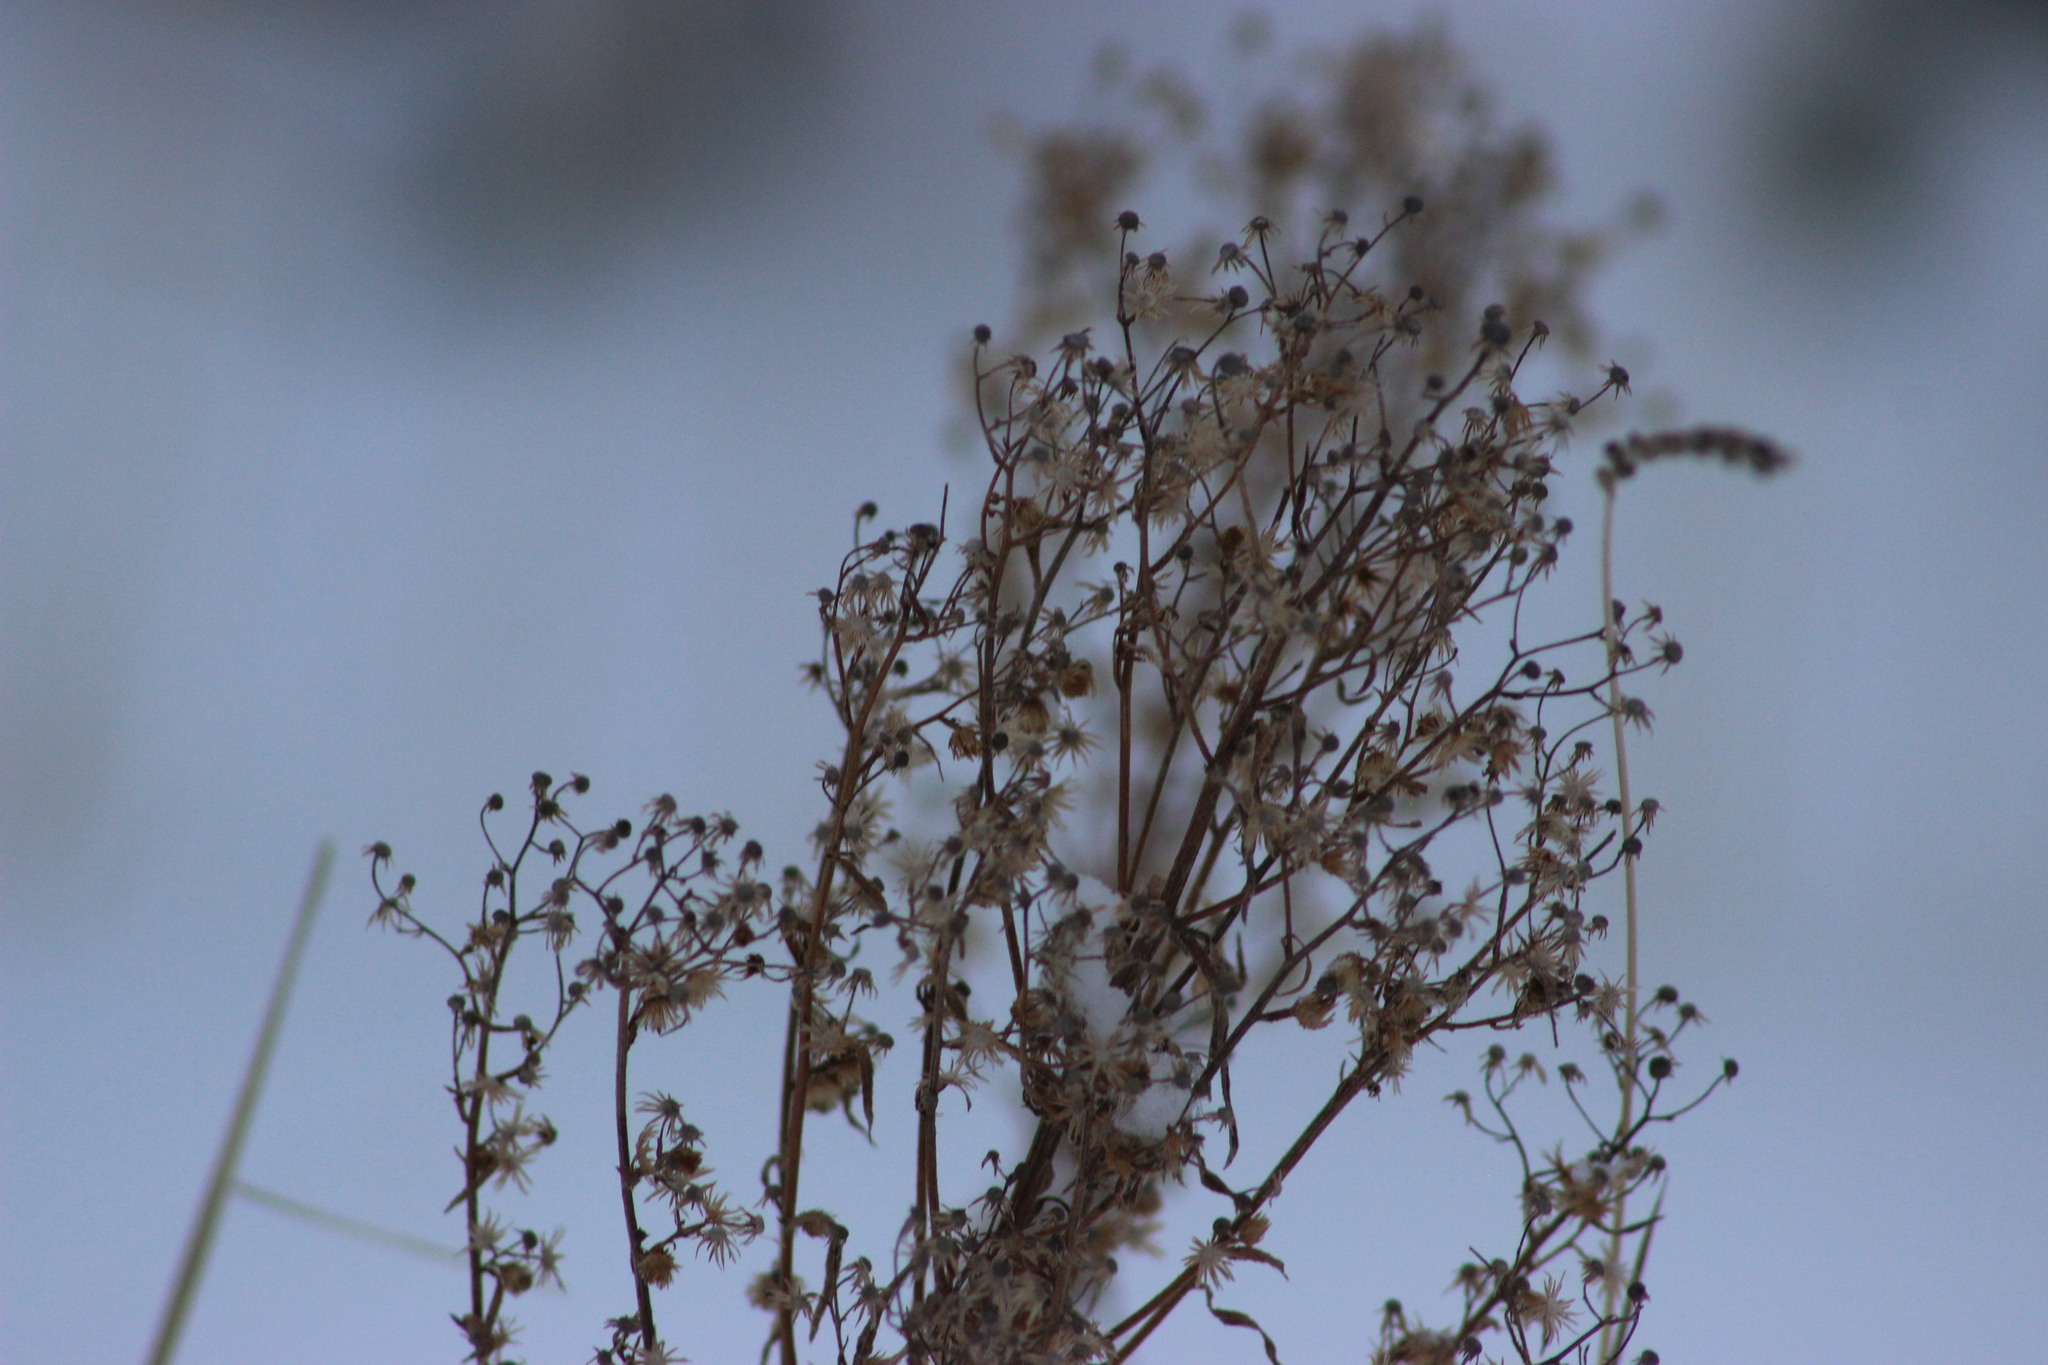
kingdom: Plantae
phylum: Tracheophyta
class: Magnoliopsida
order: Asterales
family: Asteraceae
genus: Erigeron
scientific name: Erigeron canadensis
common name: Canadian fleabane
